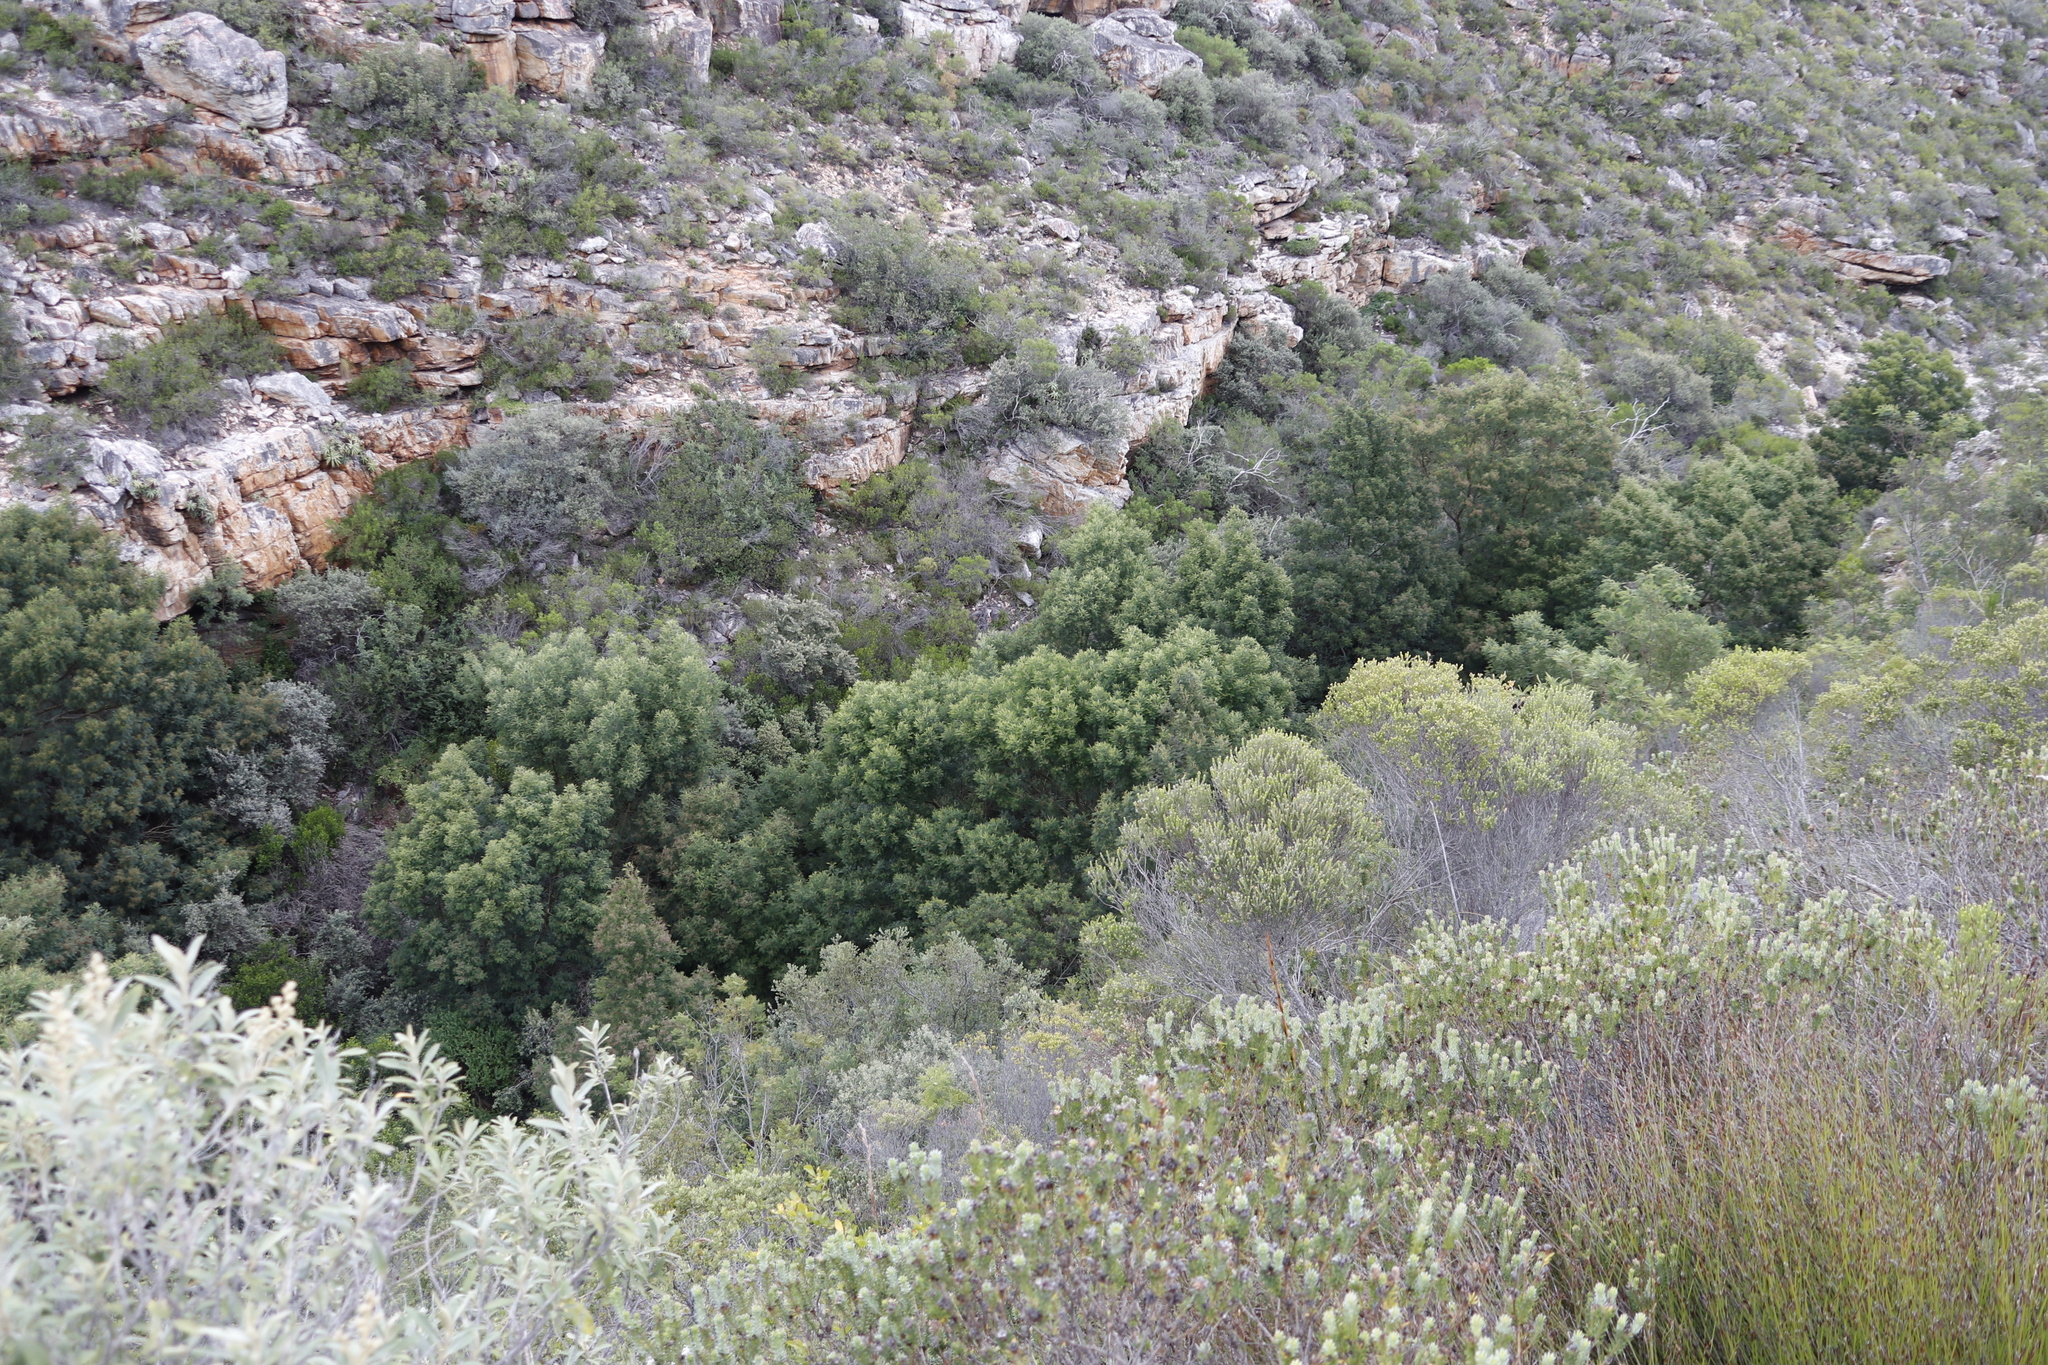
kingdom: Plantae
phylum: Tracheophyta
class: Magnoliopsida
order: Fabales
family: Fabaceae
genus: Acacia
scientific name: Acacia mearnsii
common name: Black wattle
